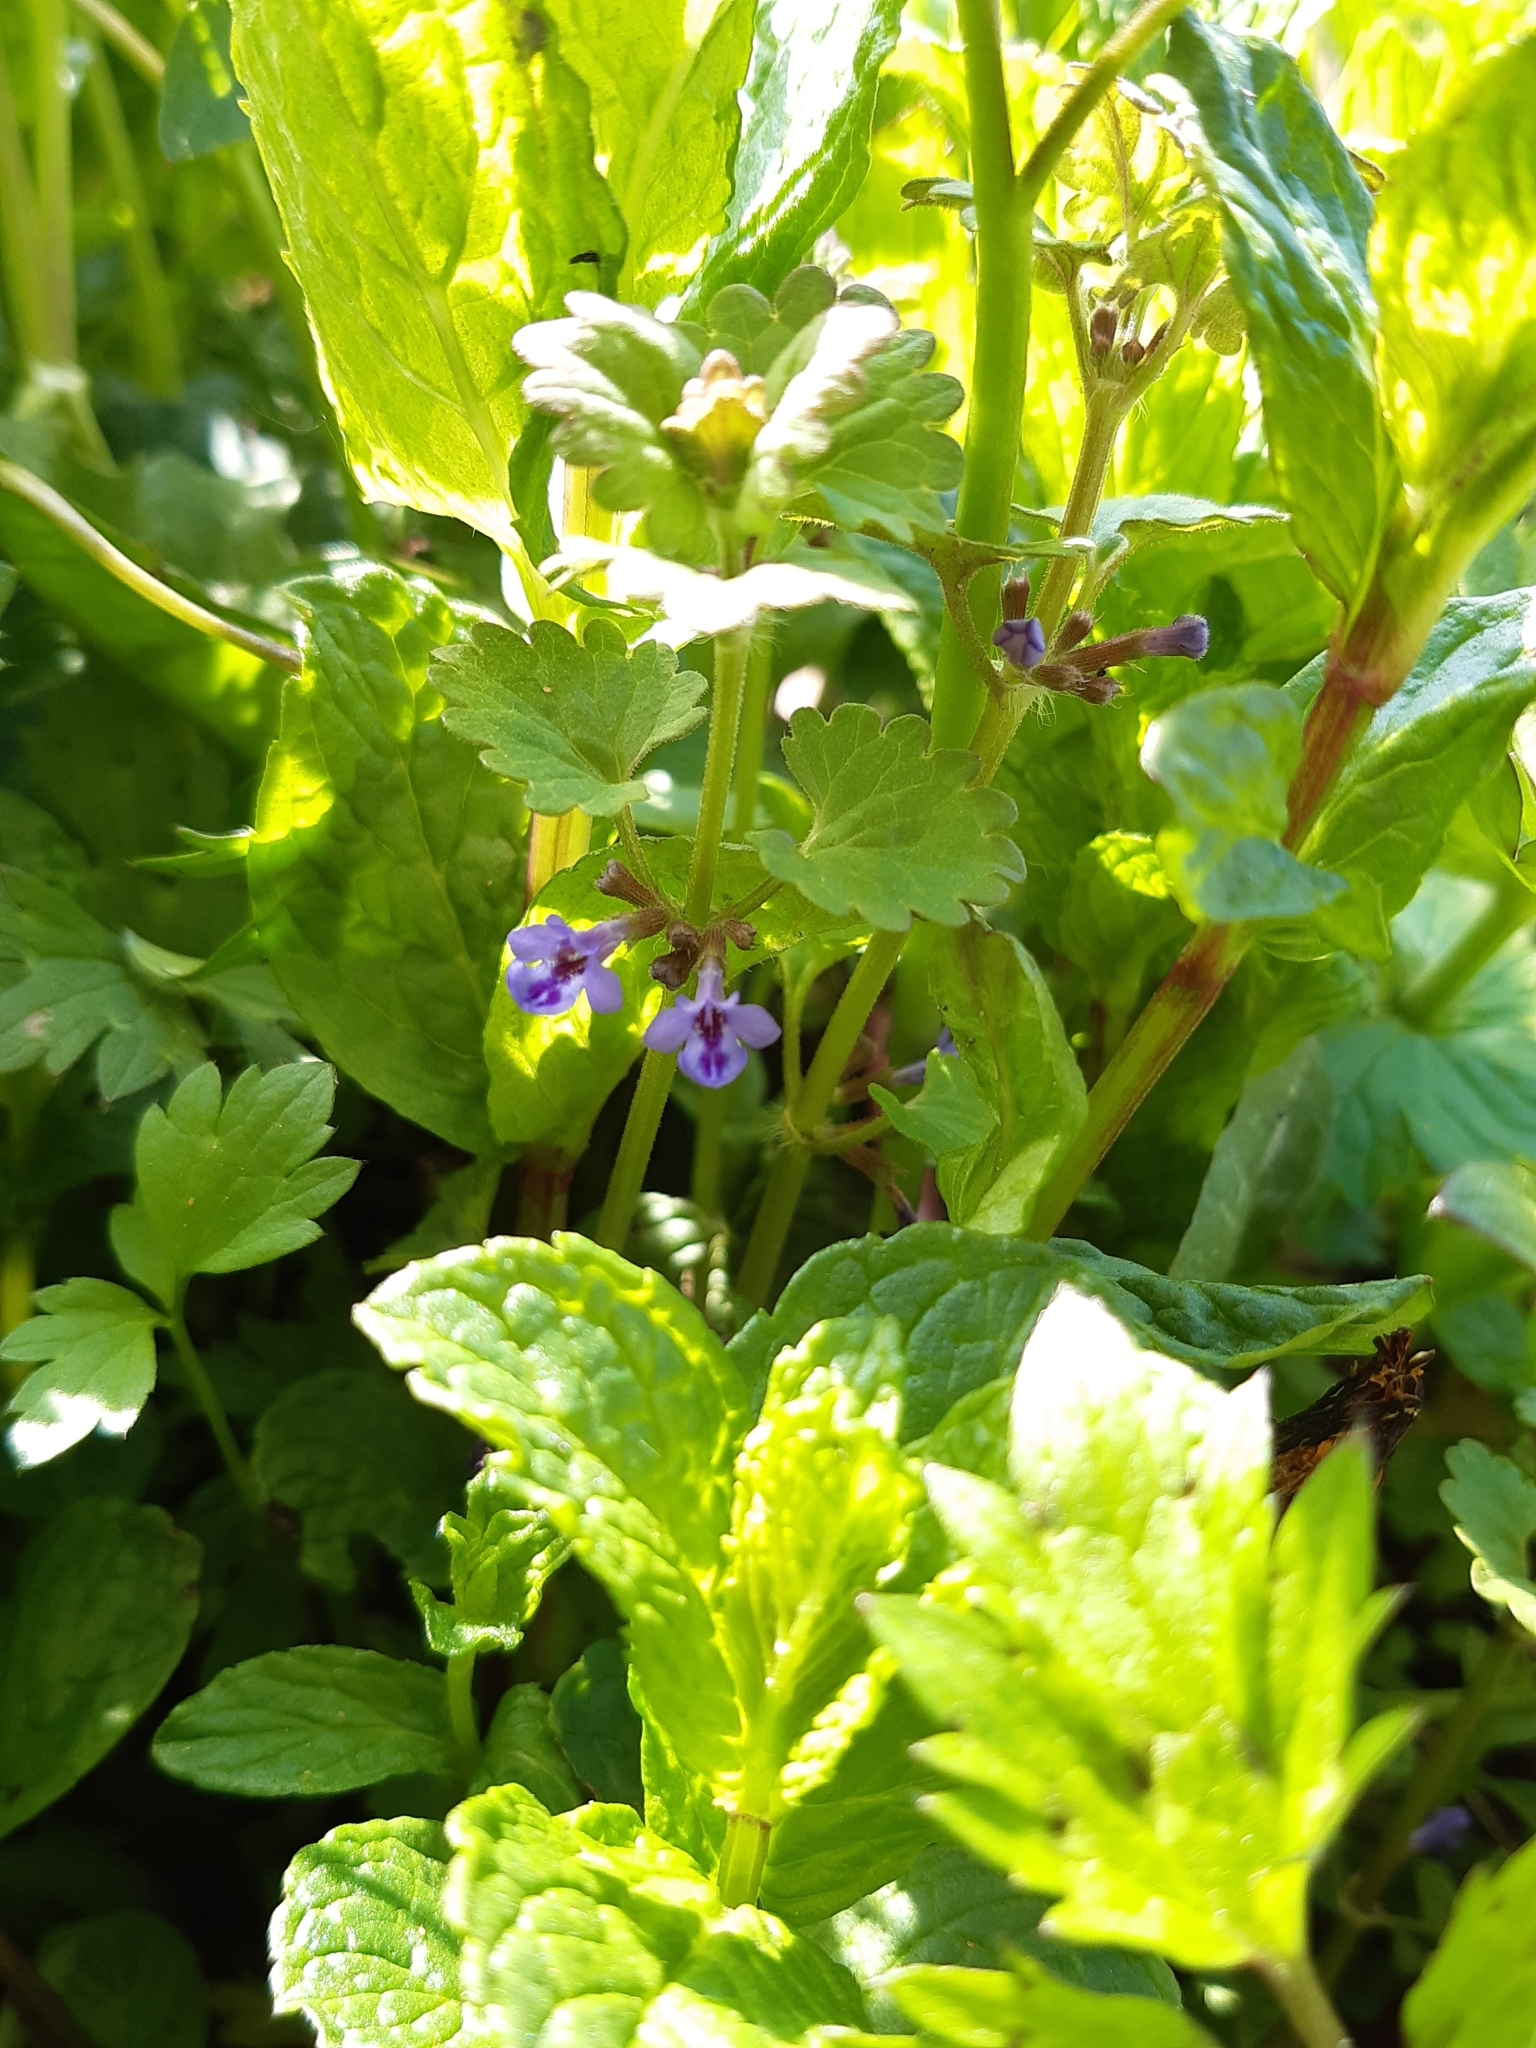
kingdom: Plantae
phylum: Tracheophyta
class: Magnoliopsida
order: Lamiales
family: Lamiaceae
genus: Glechoma
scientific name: Glechoma hederacea
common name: Ground ivy
